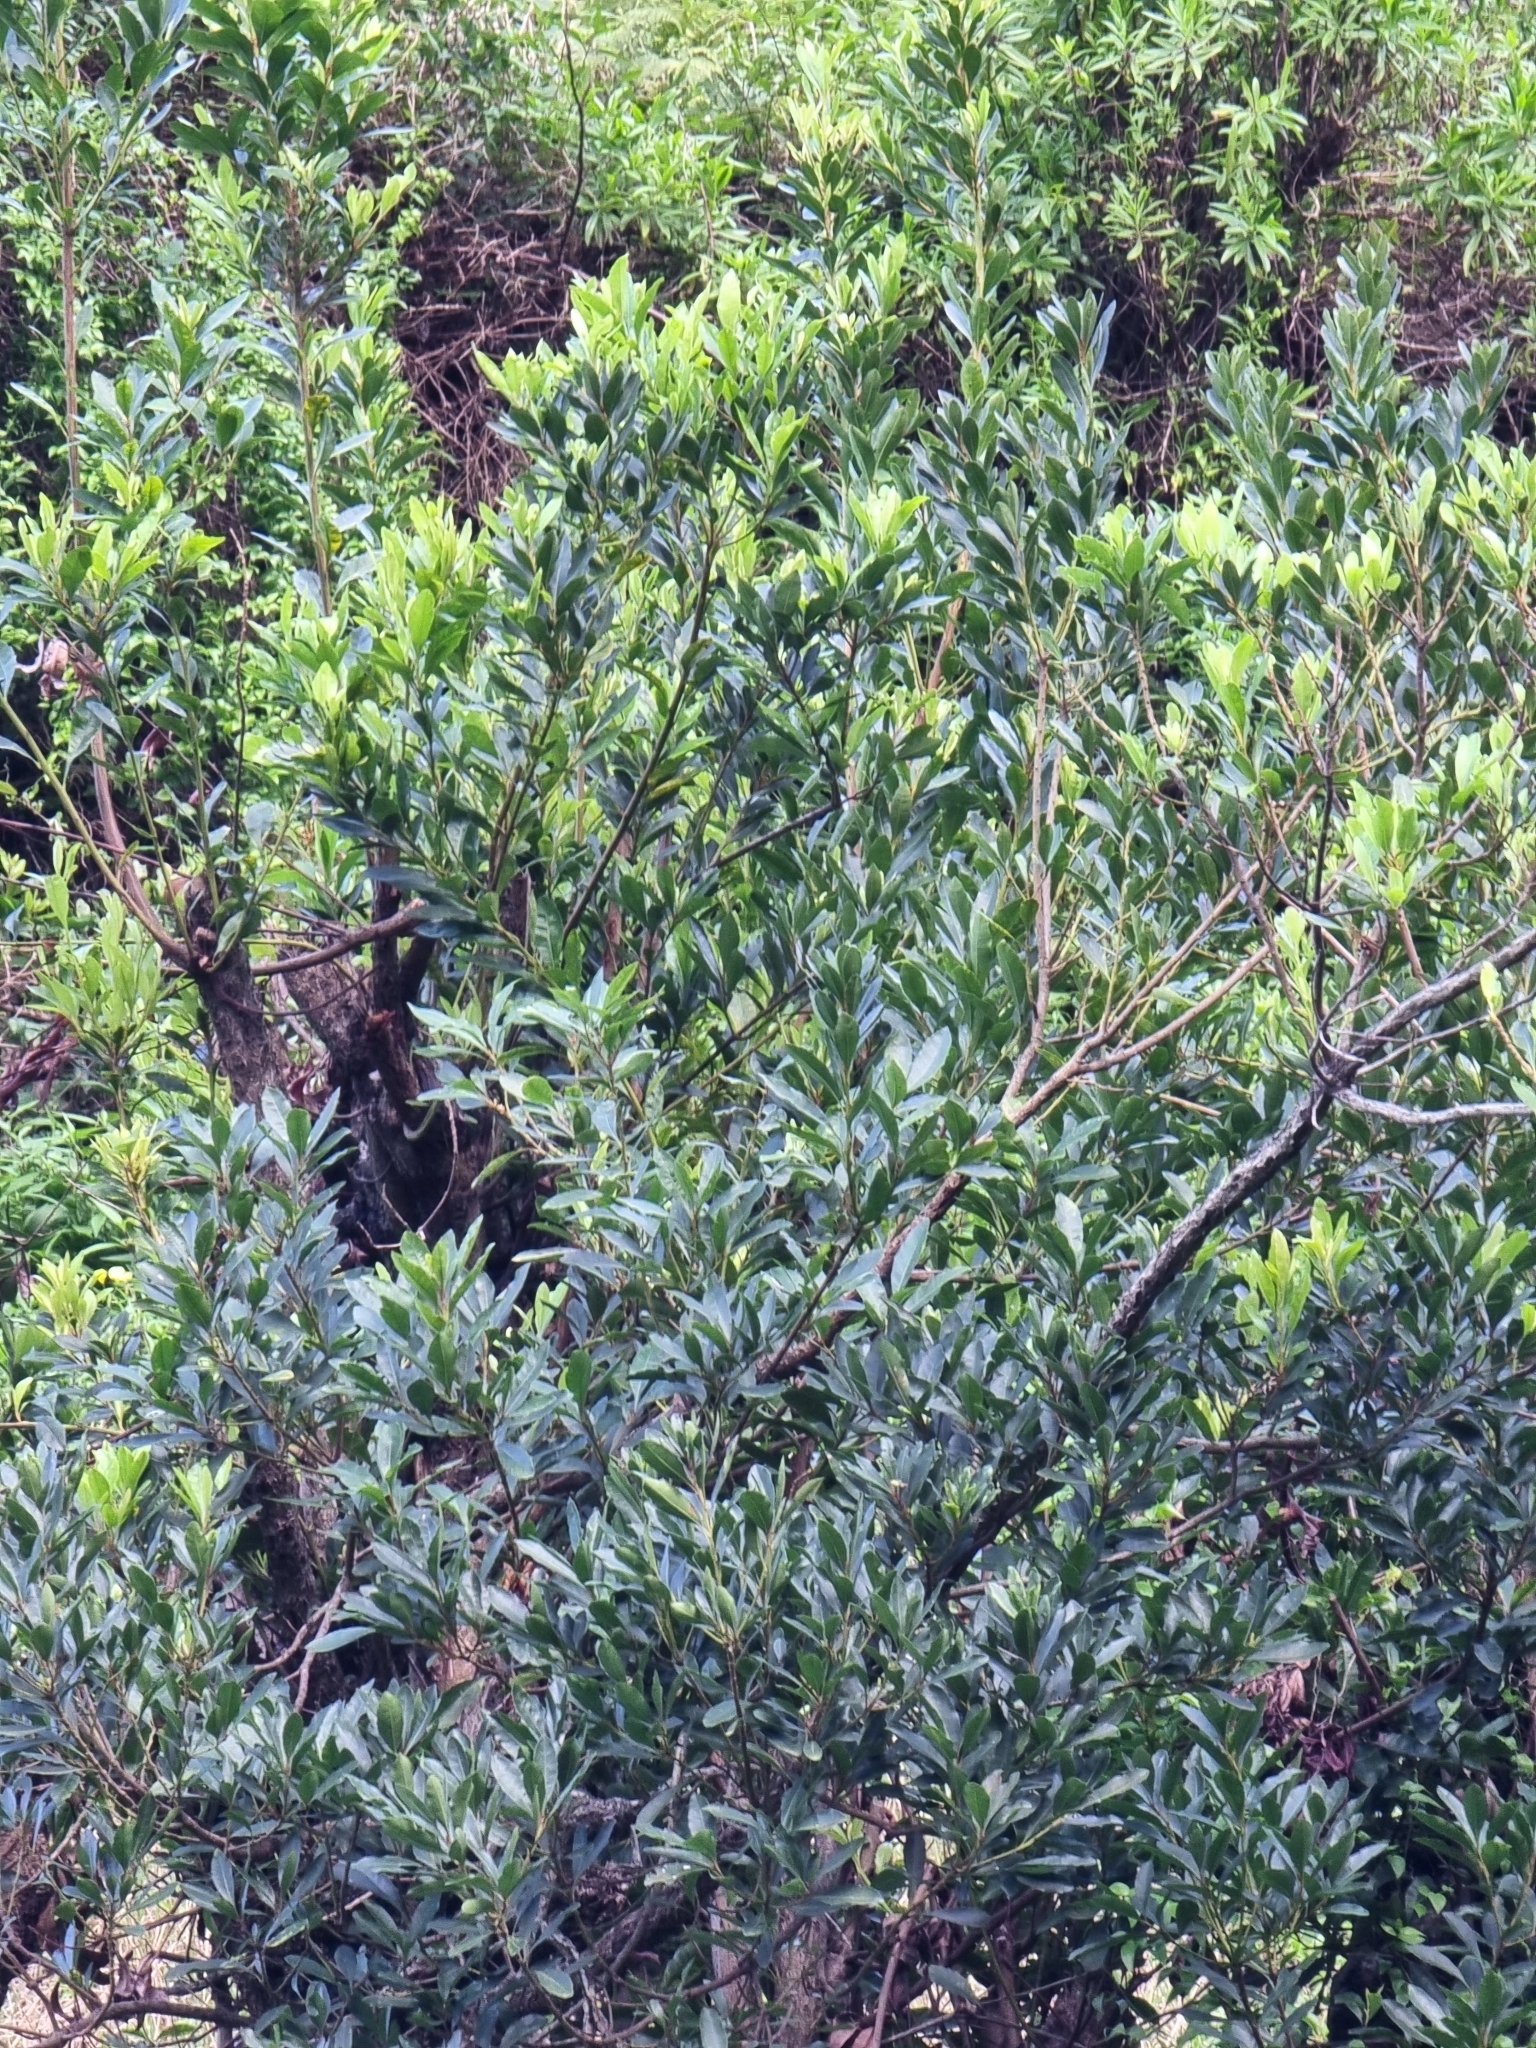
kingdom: Plantae
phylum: Tracheophyta
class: Magnoliopsida
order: Fagales
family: Myricaceae
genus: Morella
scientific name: Morella faya
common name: Firetree
